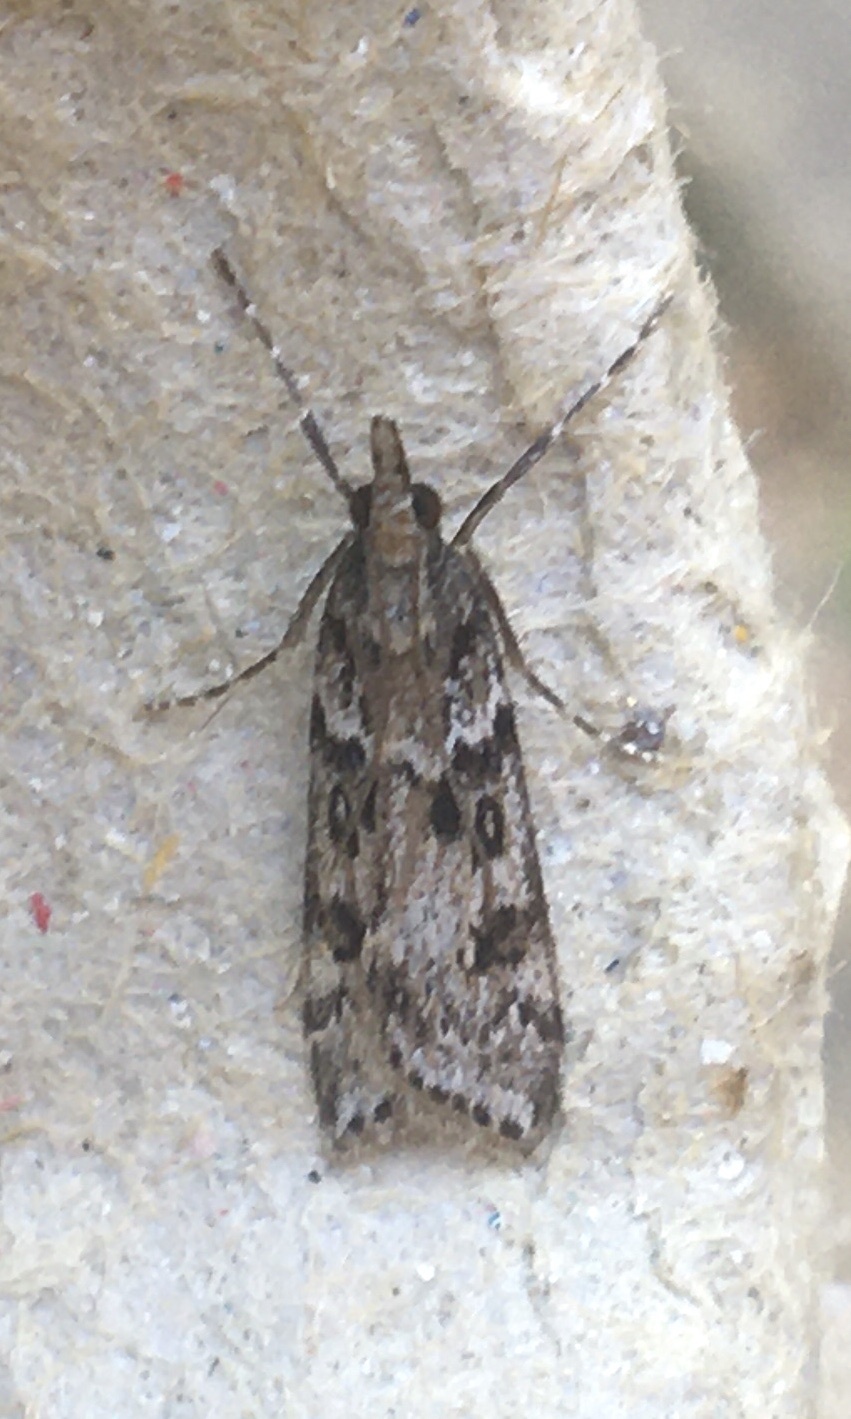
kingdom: Animalia
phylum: Arthropoda
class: Insecta
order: Lepidoptera
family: Crambidae
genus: Eudonia
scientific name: Eudonia angustea
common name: Narrow-winged grey
